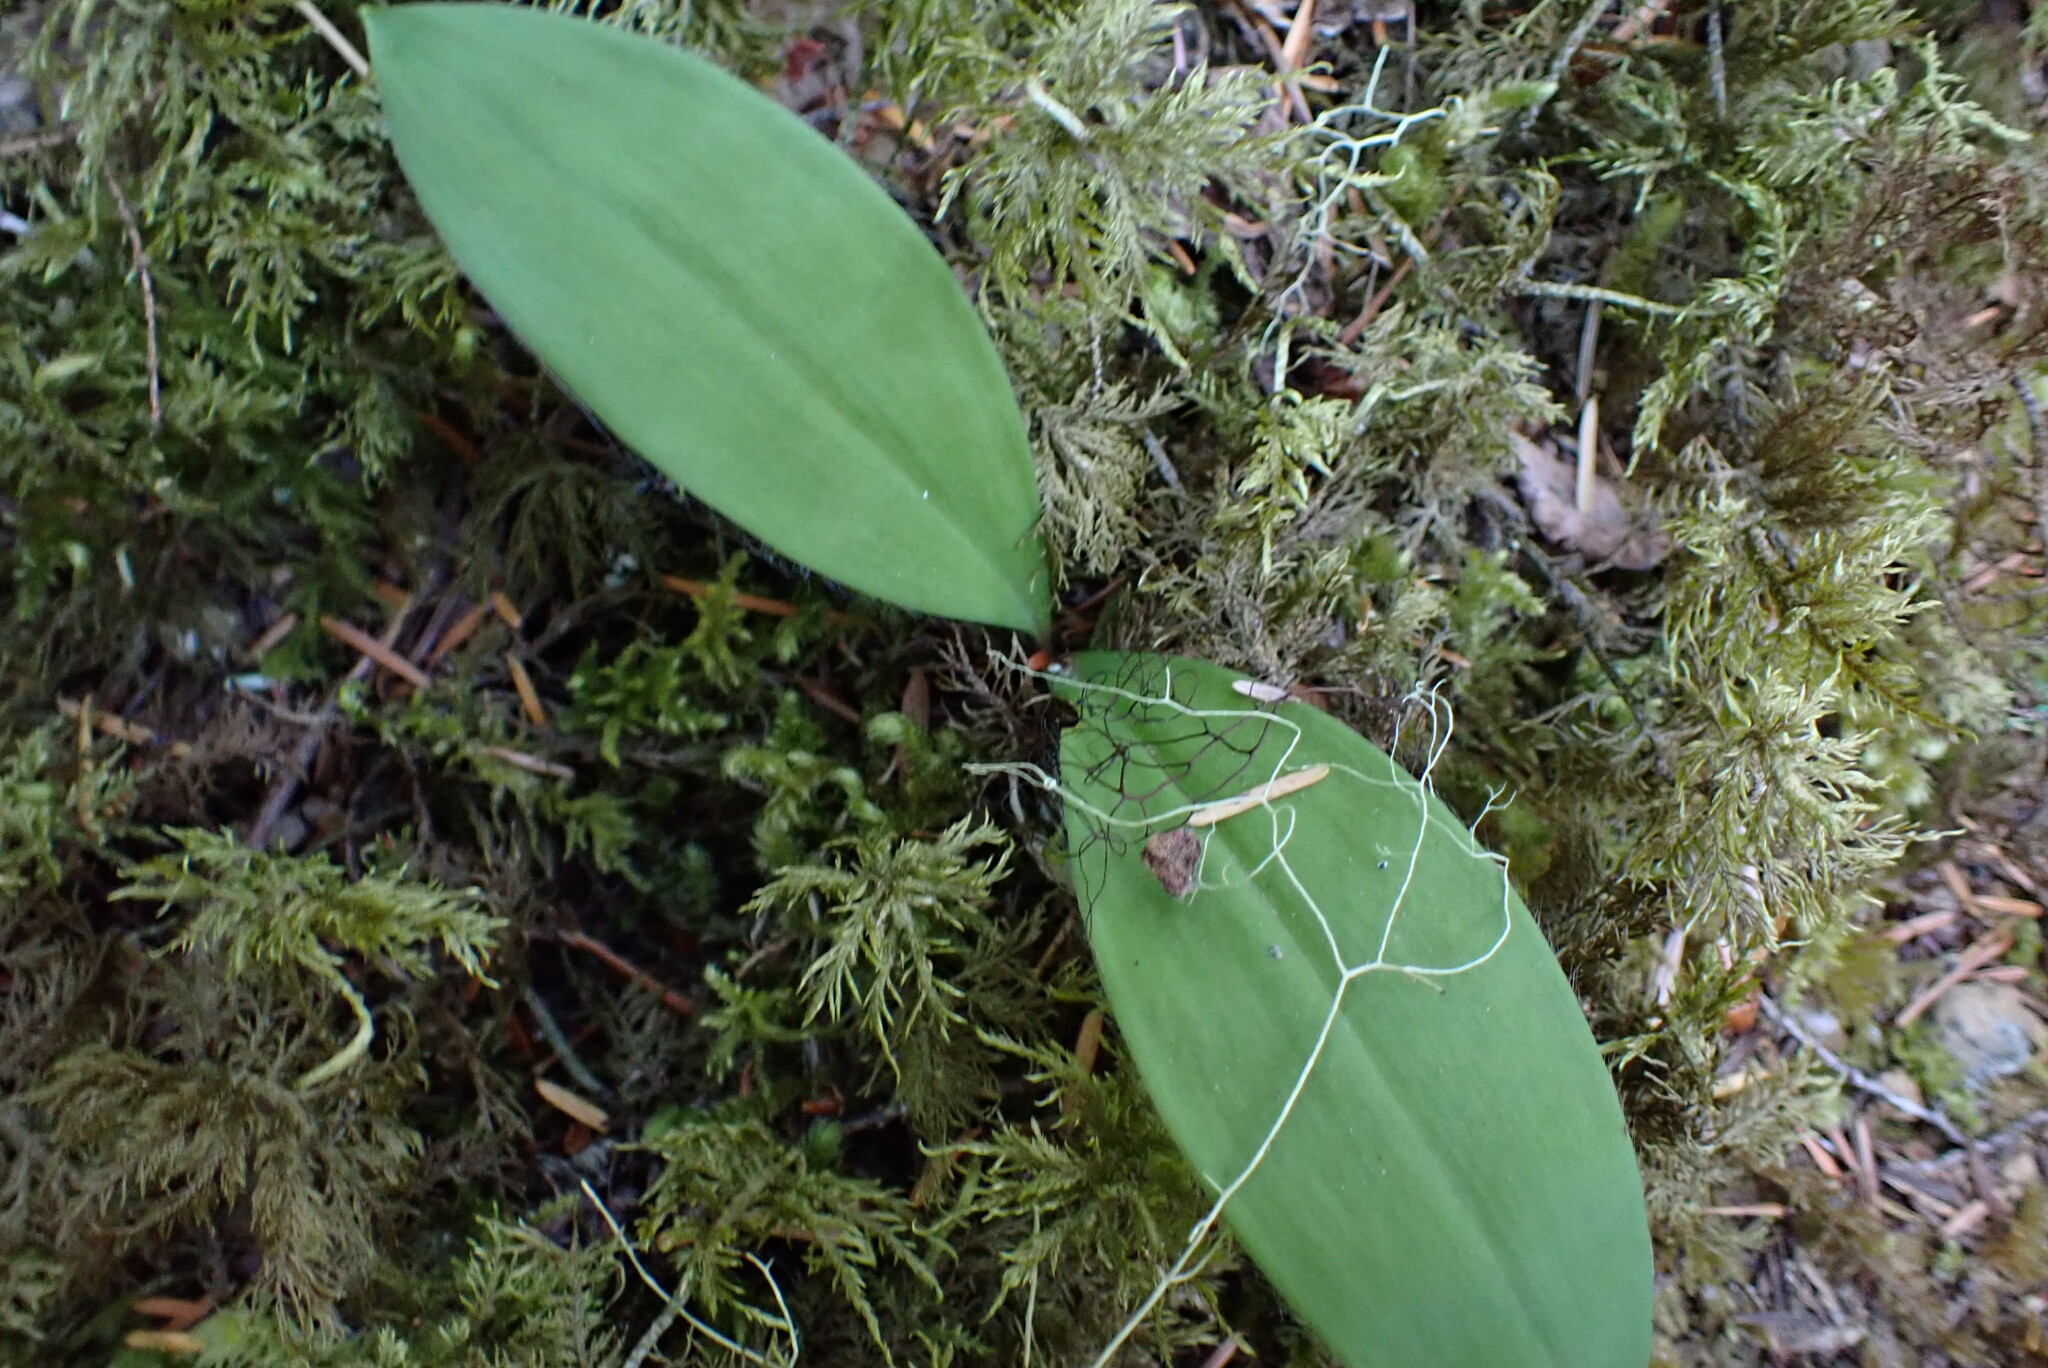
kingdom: Plantae
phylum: Tracheophyta
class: Liliopsida
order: Liliales
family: Liliaceae
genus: Clintonia
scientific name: Clintonia uniflora
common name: Queen's cup
